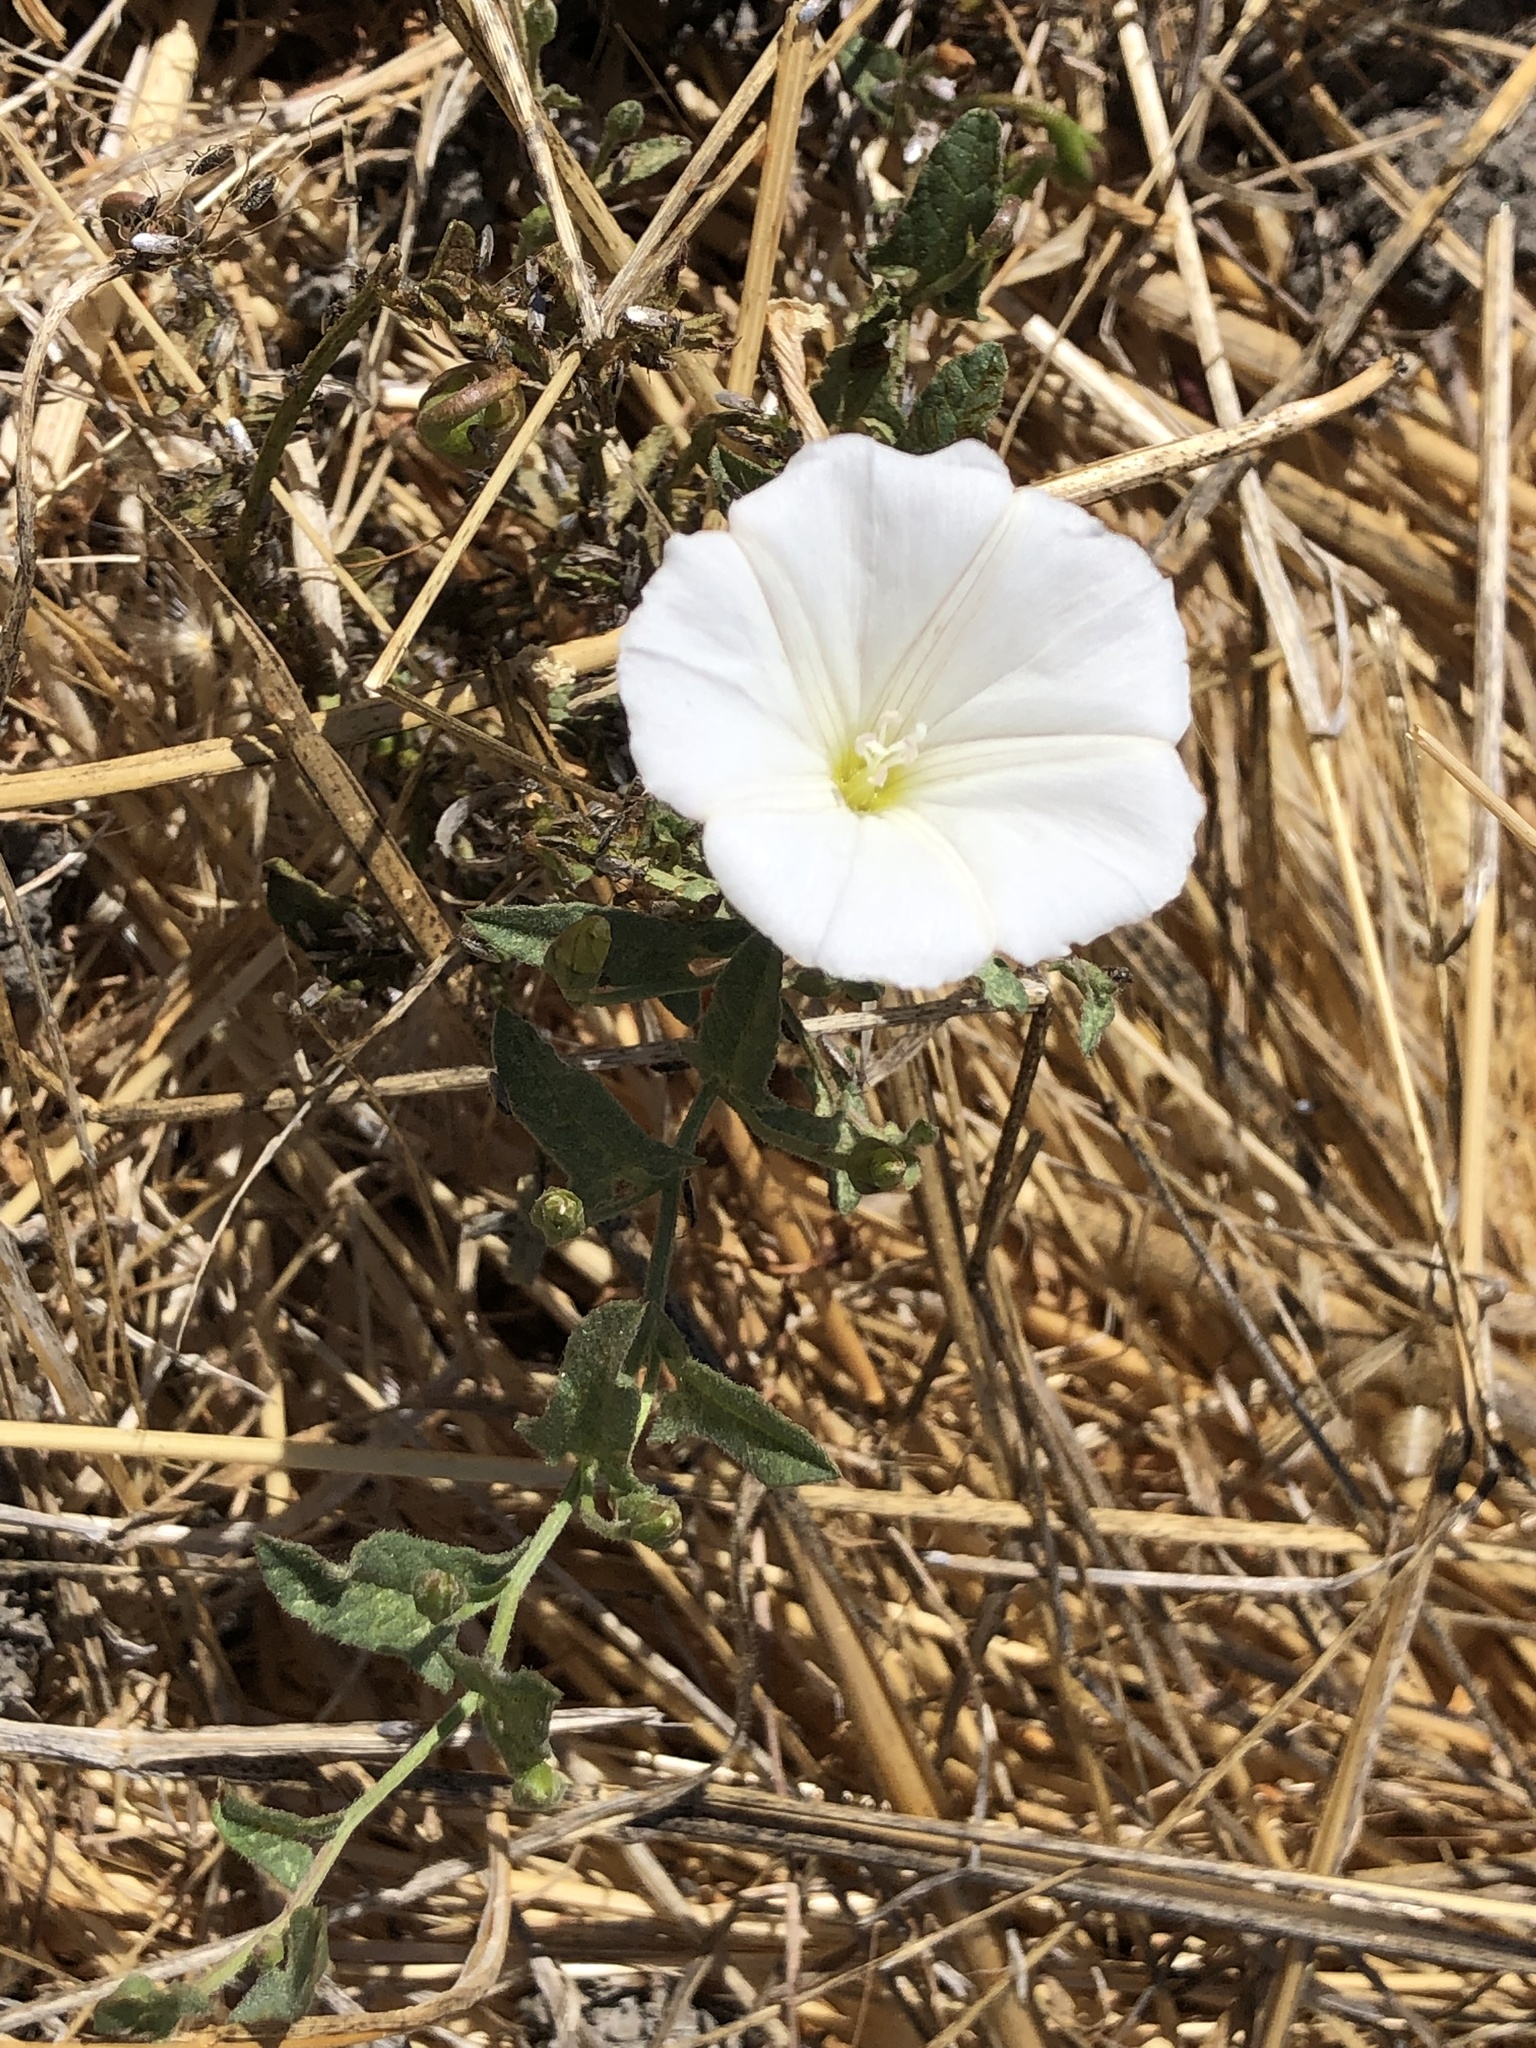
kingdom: Plantae
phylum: Tracheophyta
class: Magnoliopsida
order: Solanales
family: Convolvulaceae
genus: Convolvulus
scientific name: Convolvulus arvensis
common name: Field bindweed
